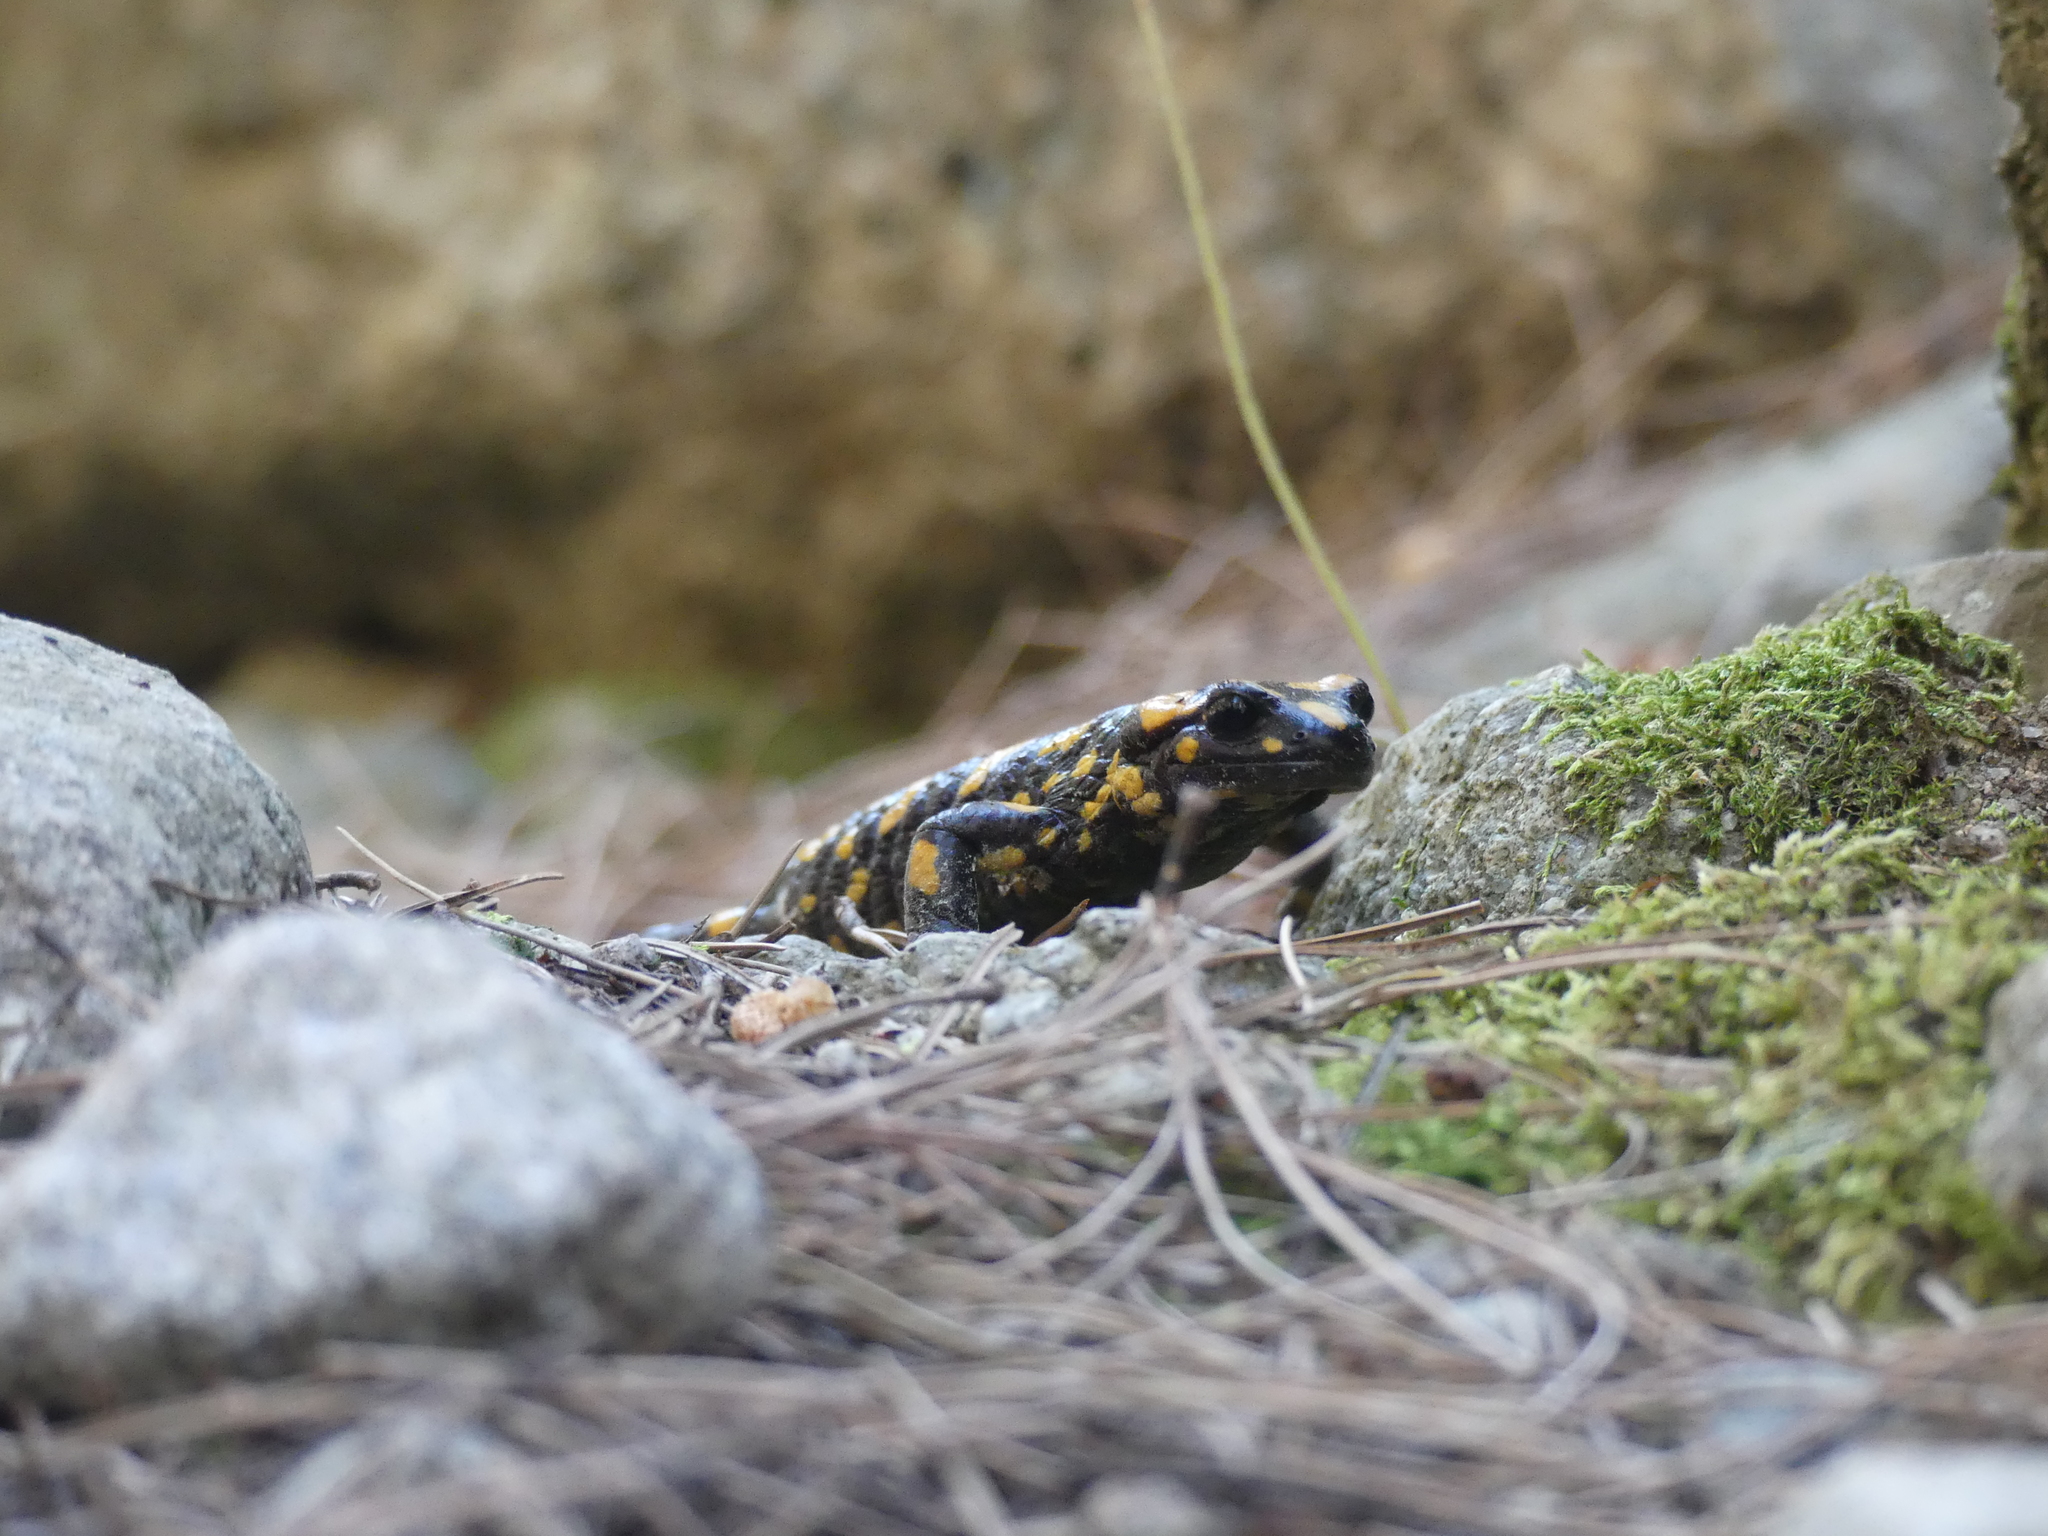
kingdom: Animalia
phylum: Chordata
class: Amphibia
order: Caudata
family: Salamandridae
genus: Salamandra
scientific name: Salamandra corsica
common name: Corsican fire salamander
